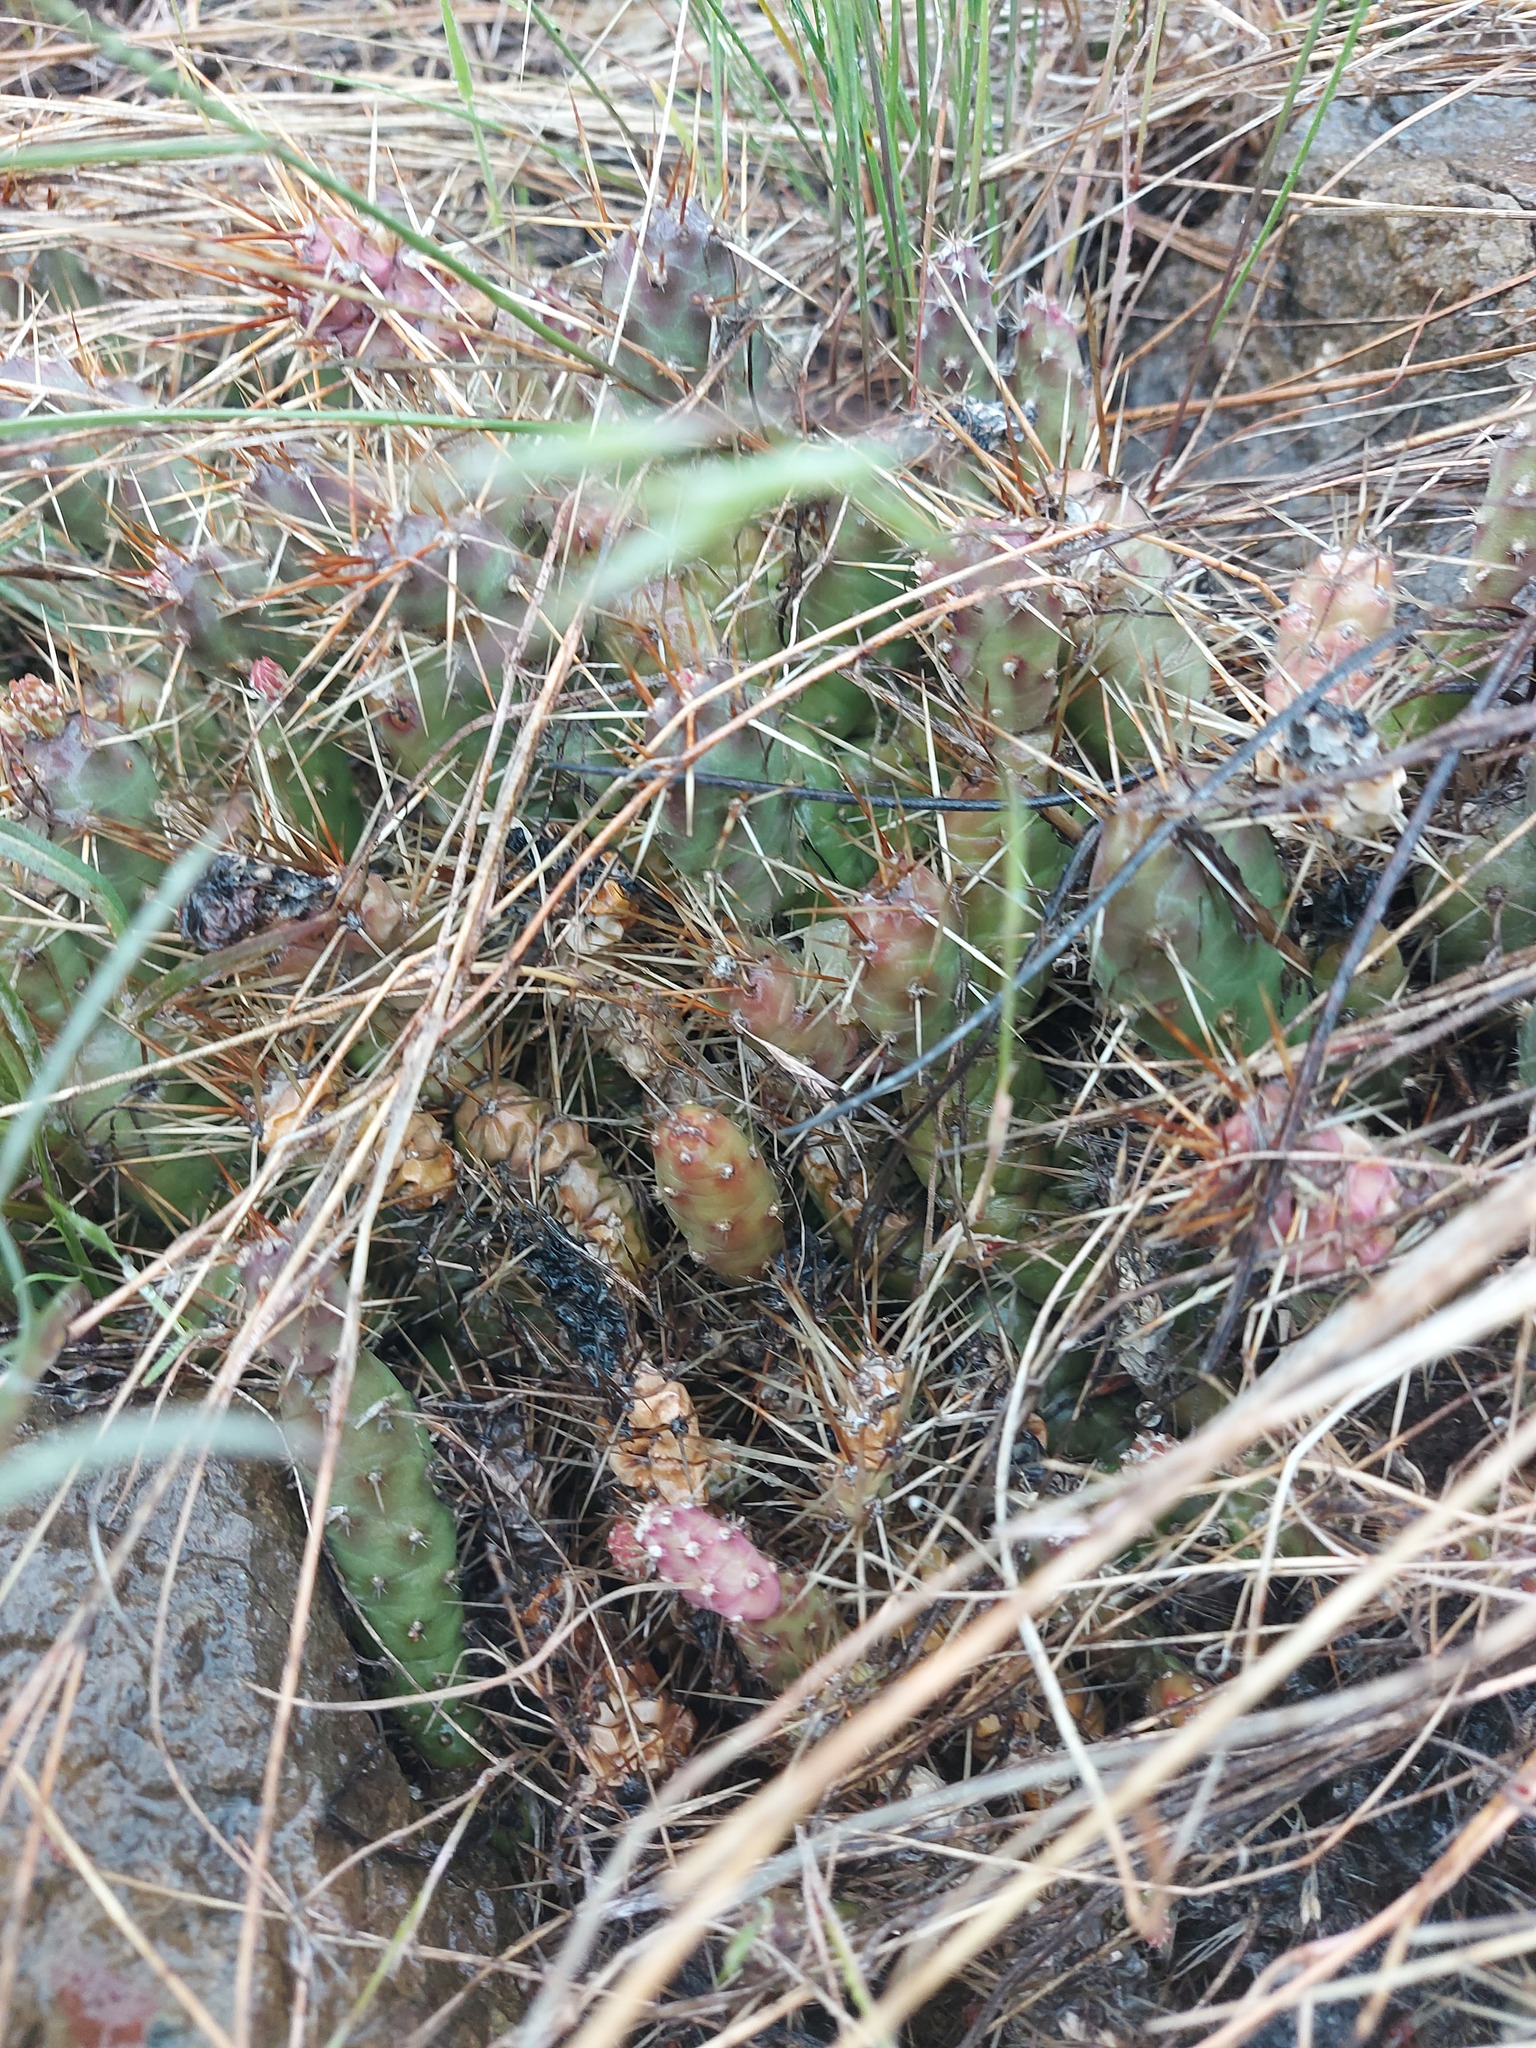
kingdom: Plantae
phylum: Tracheophyta
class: Magnoliopsida
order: Caryophyllales
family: Cactaceae
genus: Opuntia
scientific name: Opuntia fragilis
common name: Brittle cactus
